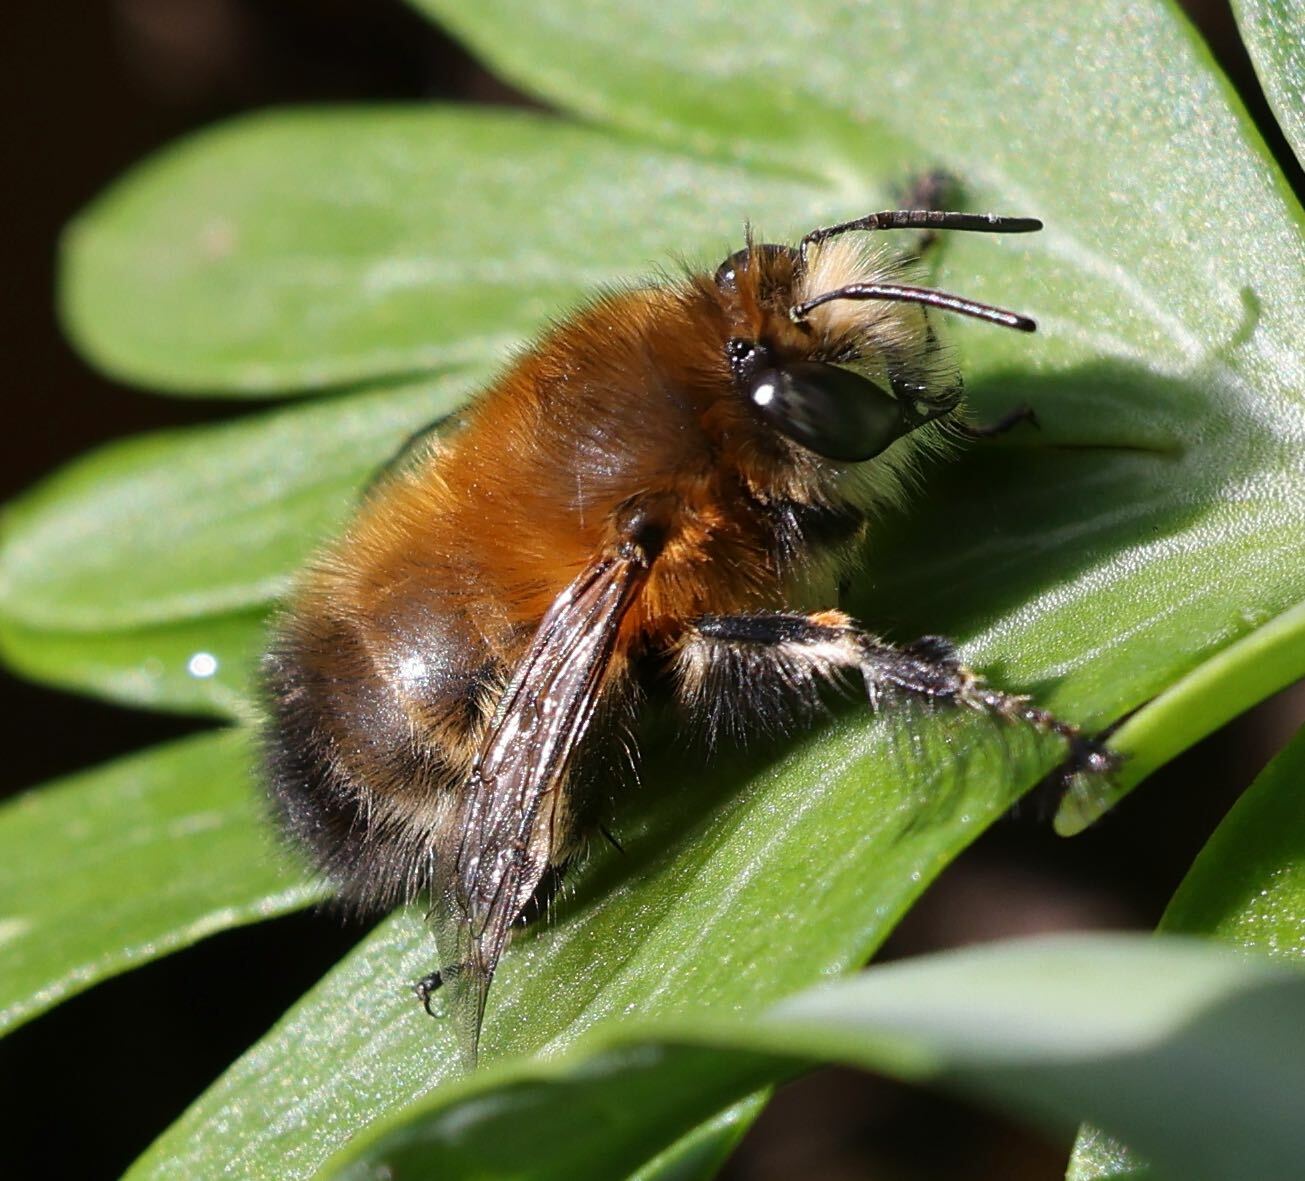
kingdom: Animalia
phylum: Arthropoda
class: Insecta
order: Hymenoptera
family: Apidae
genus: Anthophora
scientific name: Anthophora plumipes
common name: Hairy-footed flower bee
